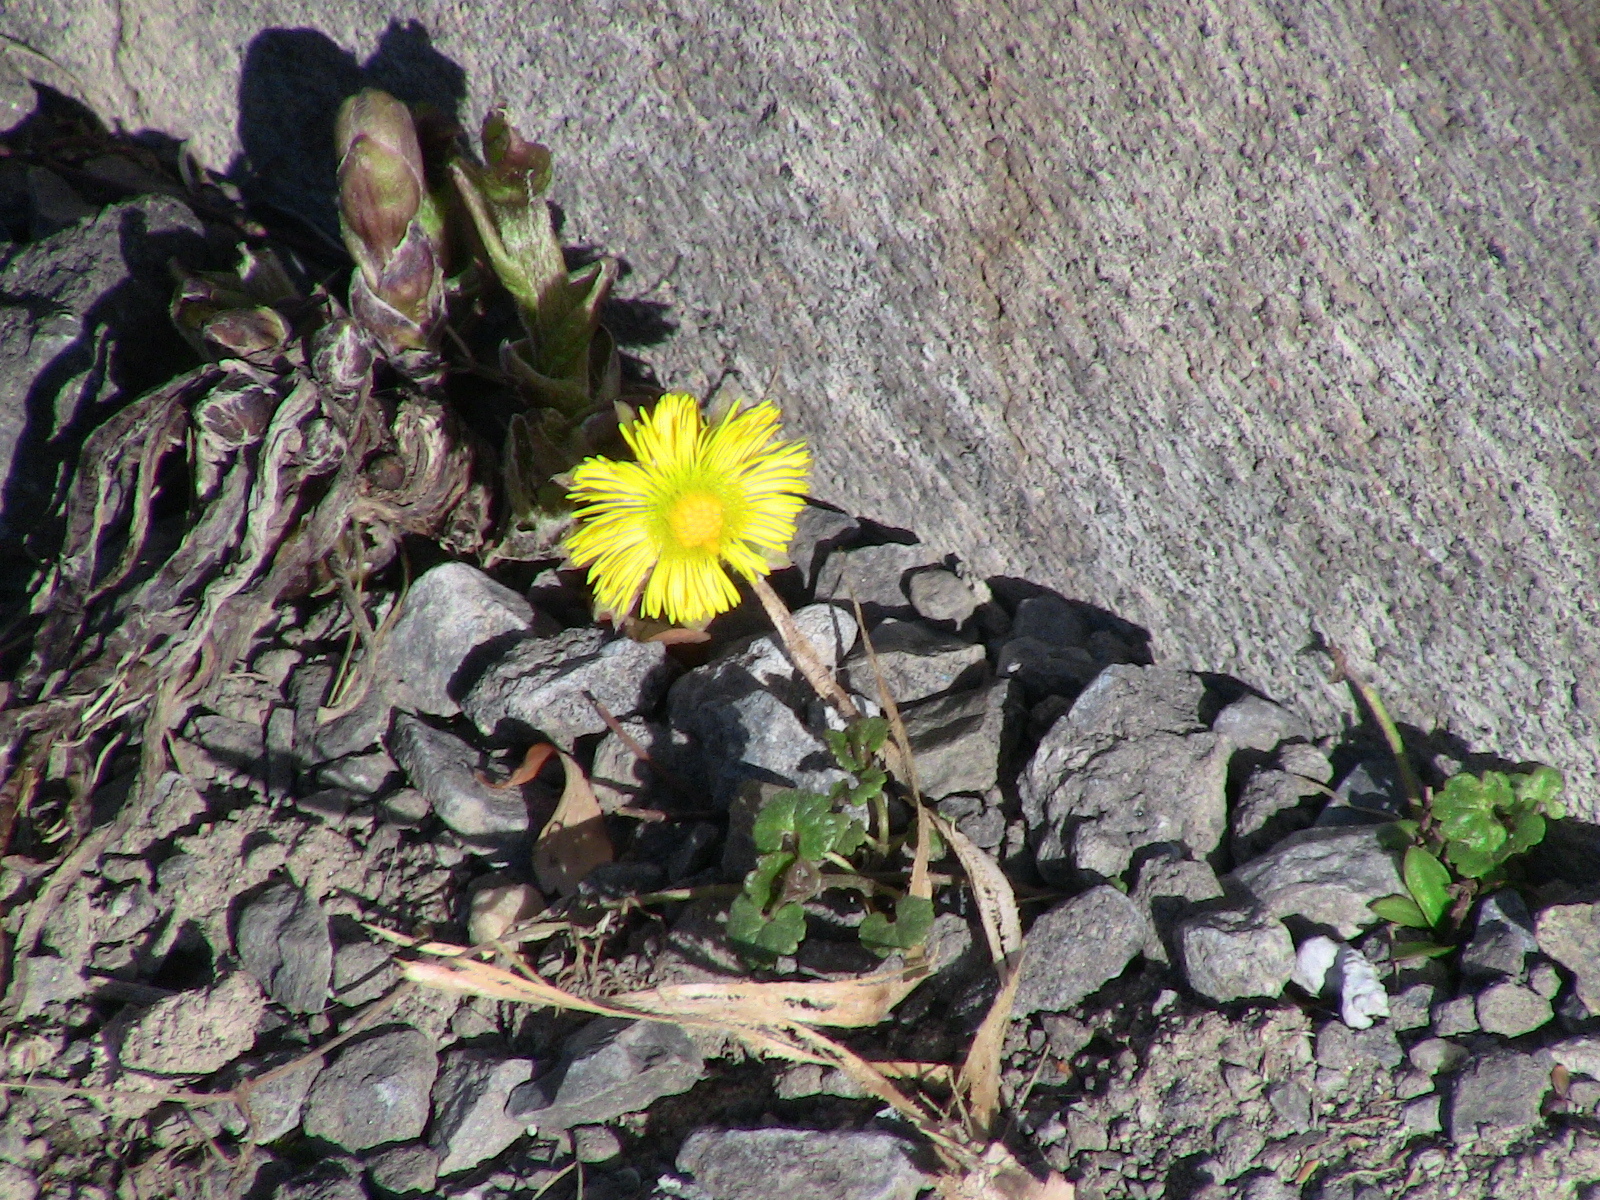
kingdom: Plantae
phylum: Tracheophyta
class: Magnoliopsida
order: Asterales
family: Asteraceae
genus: Tussilago
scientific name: Tussilago farfara
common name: Coltsfoot
